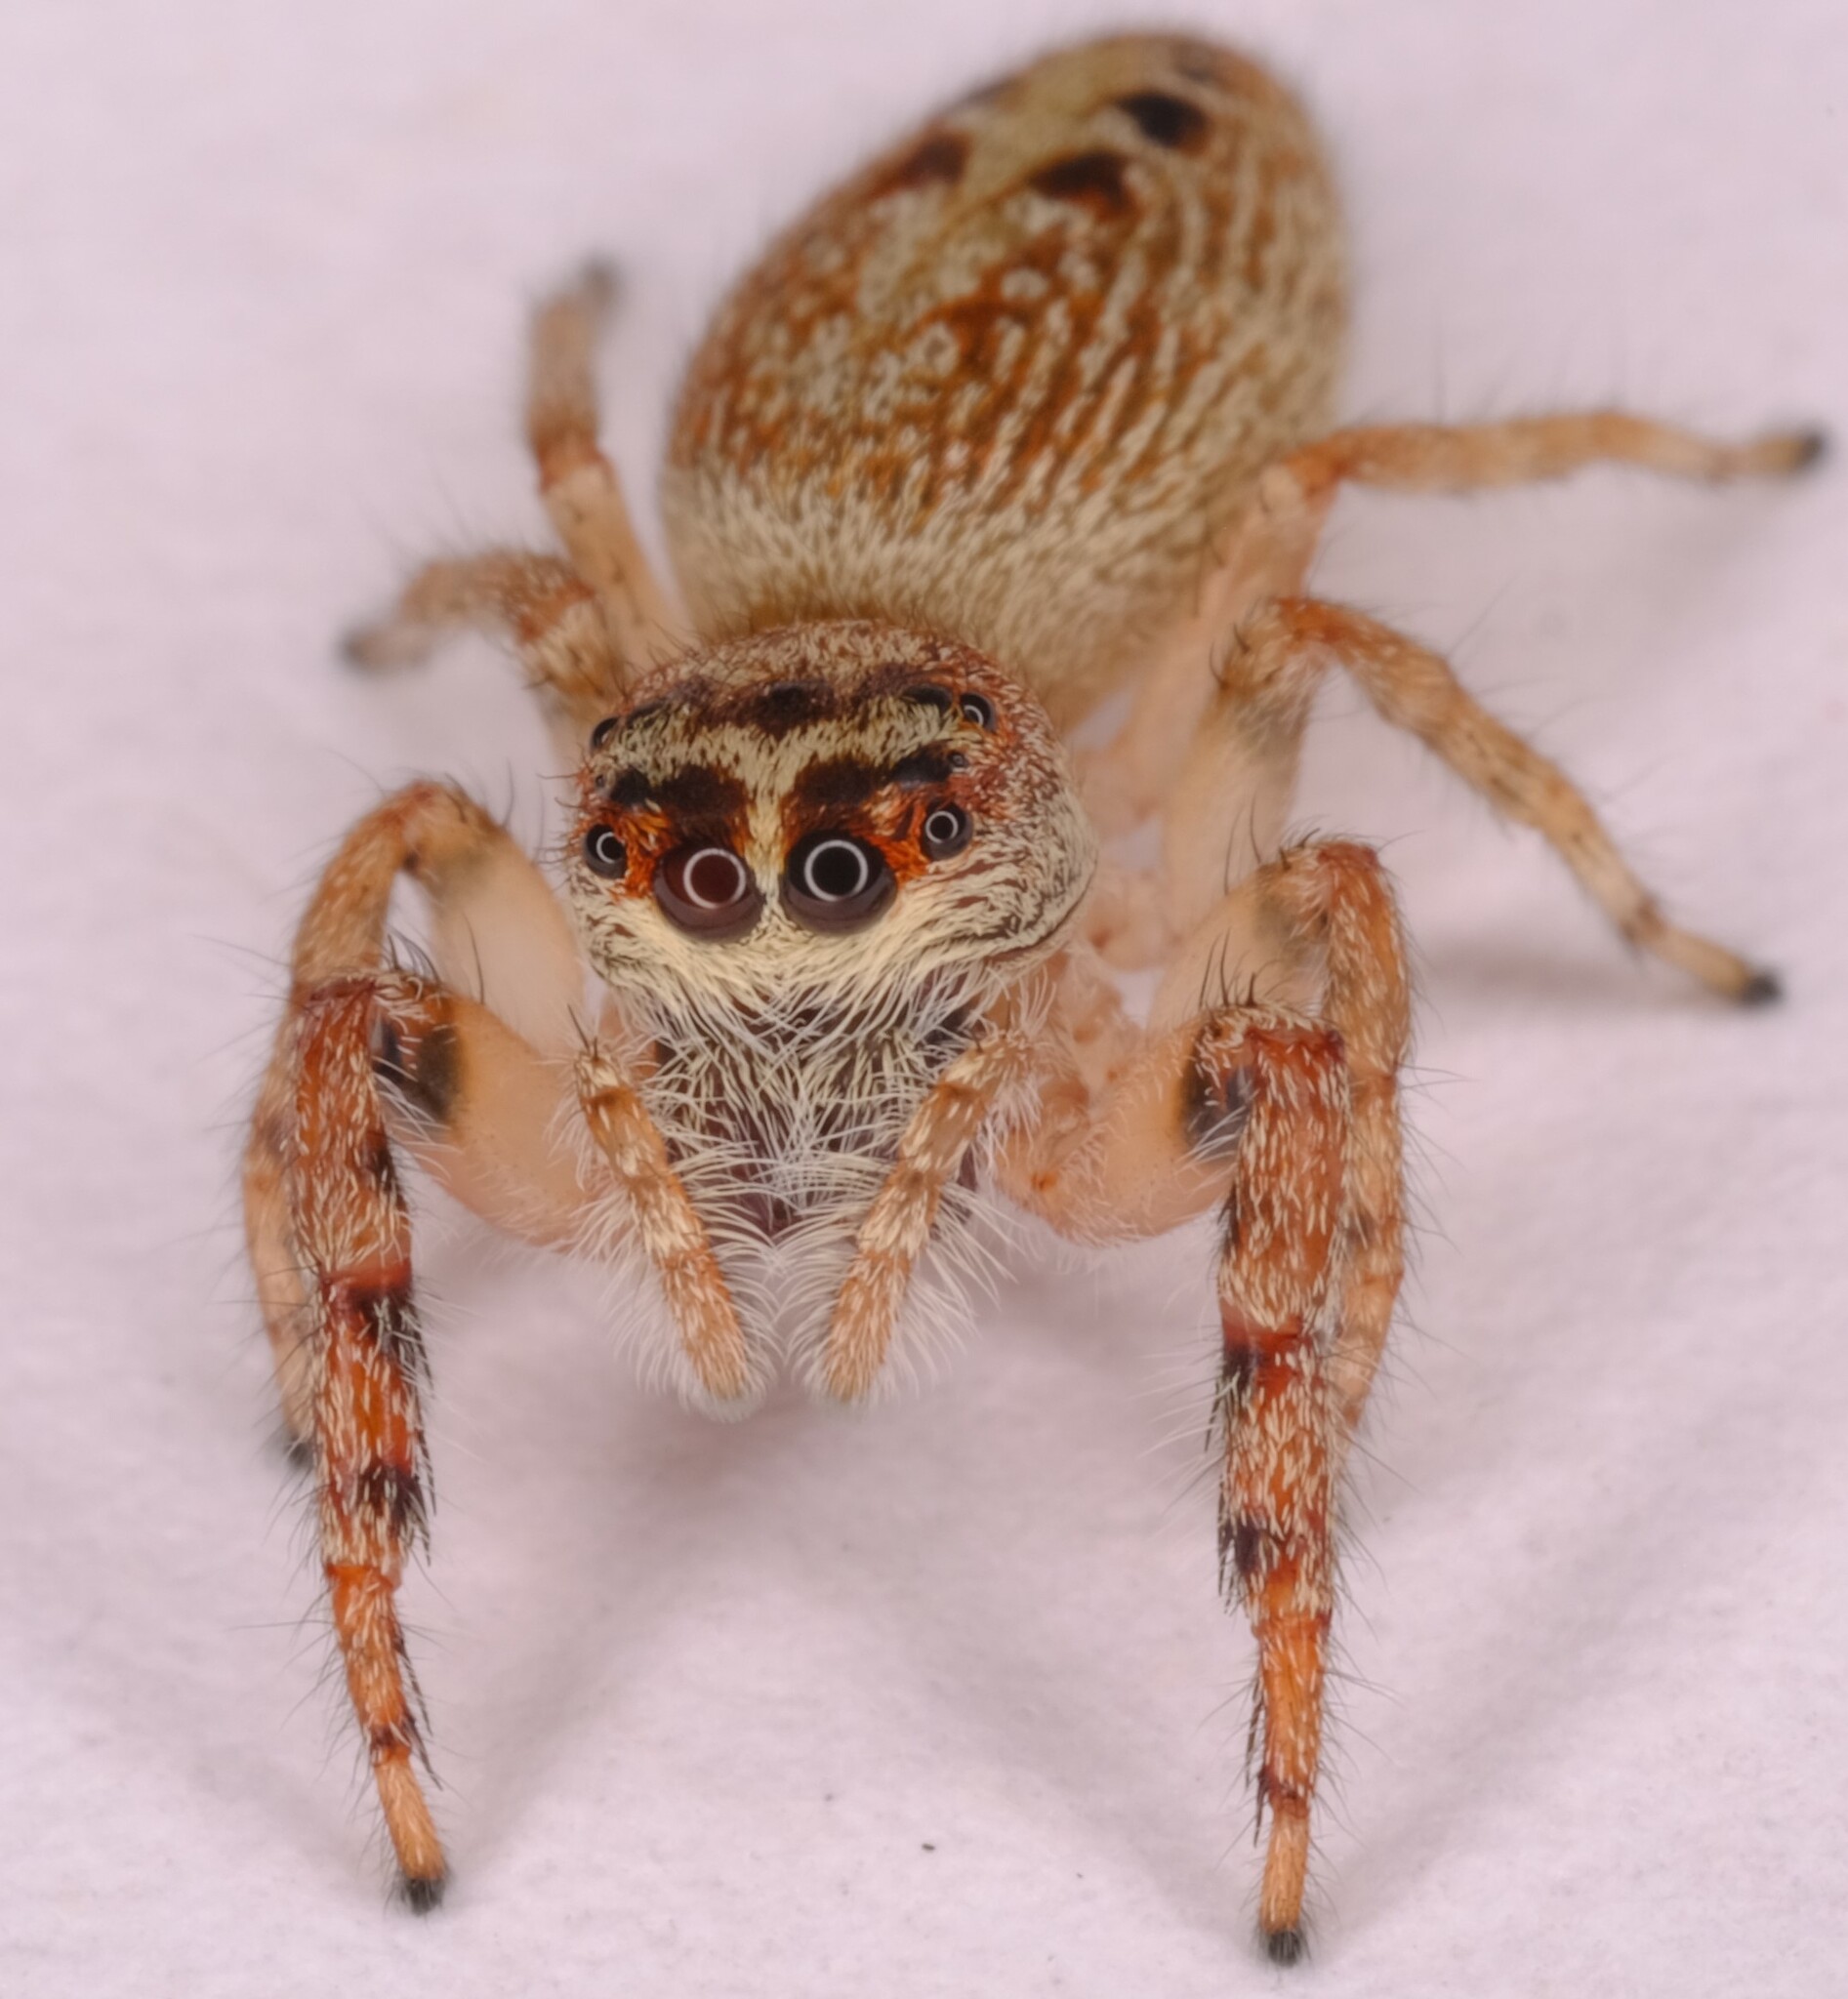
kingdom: Animalia
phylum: Arthropoda
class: Arachnida
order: Araneae
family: Salticidae
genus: Opisthoncus
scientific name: Opisthoncus nigrofemoratus
